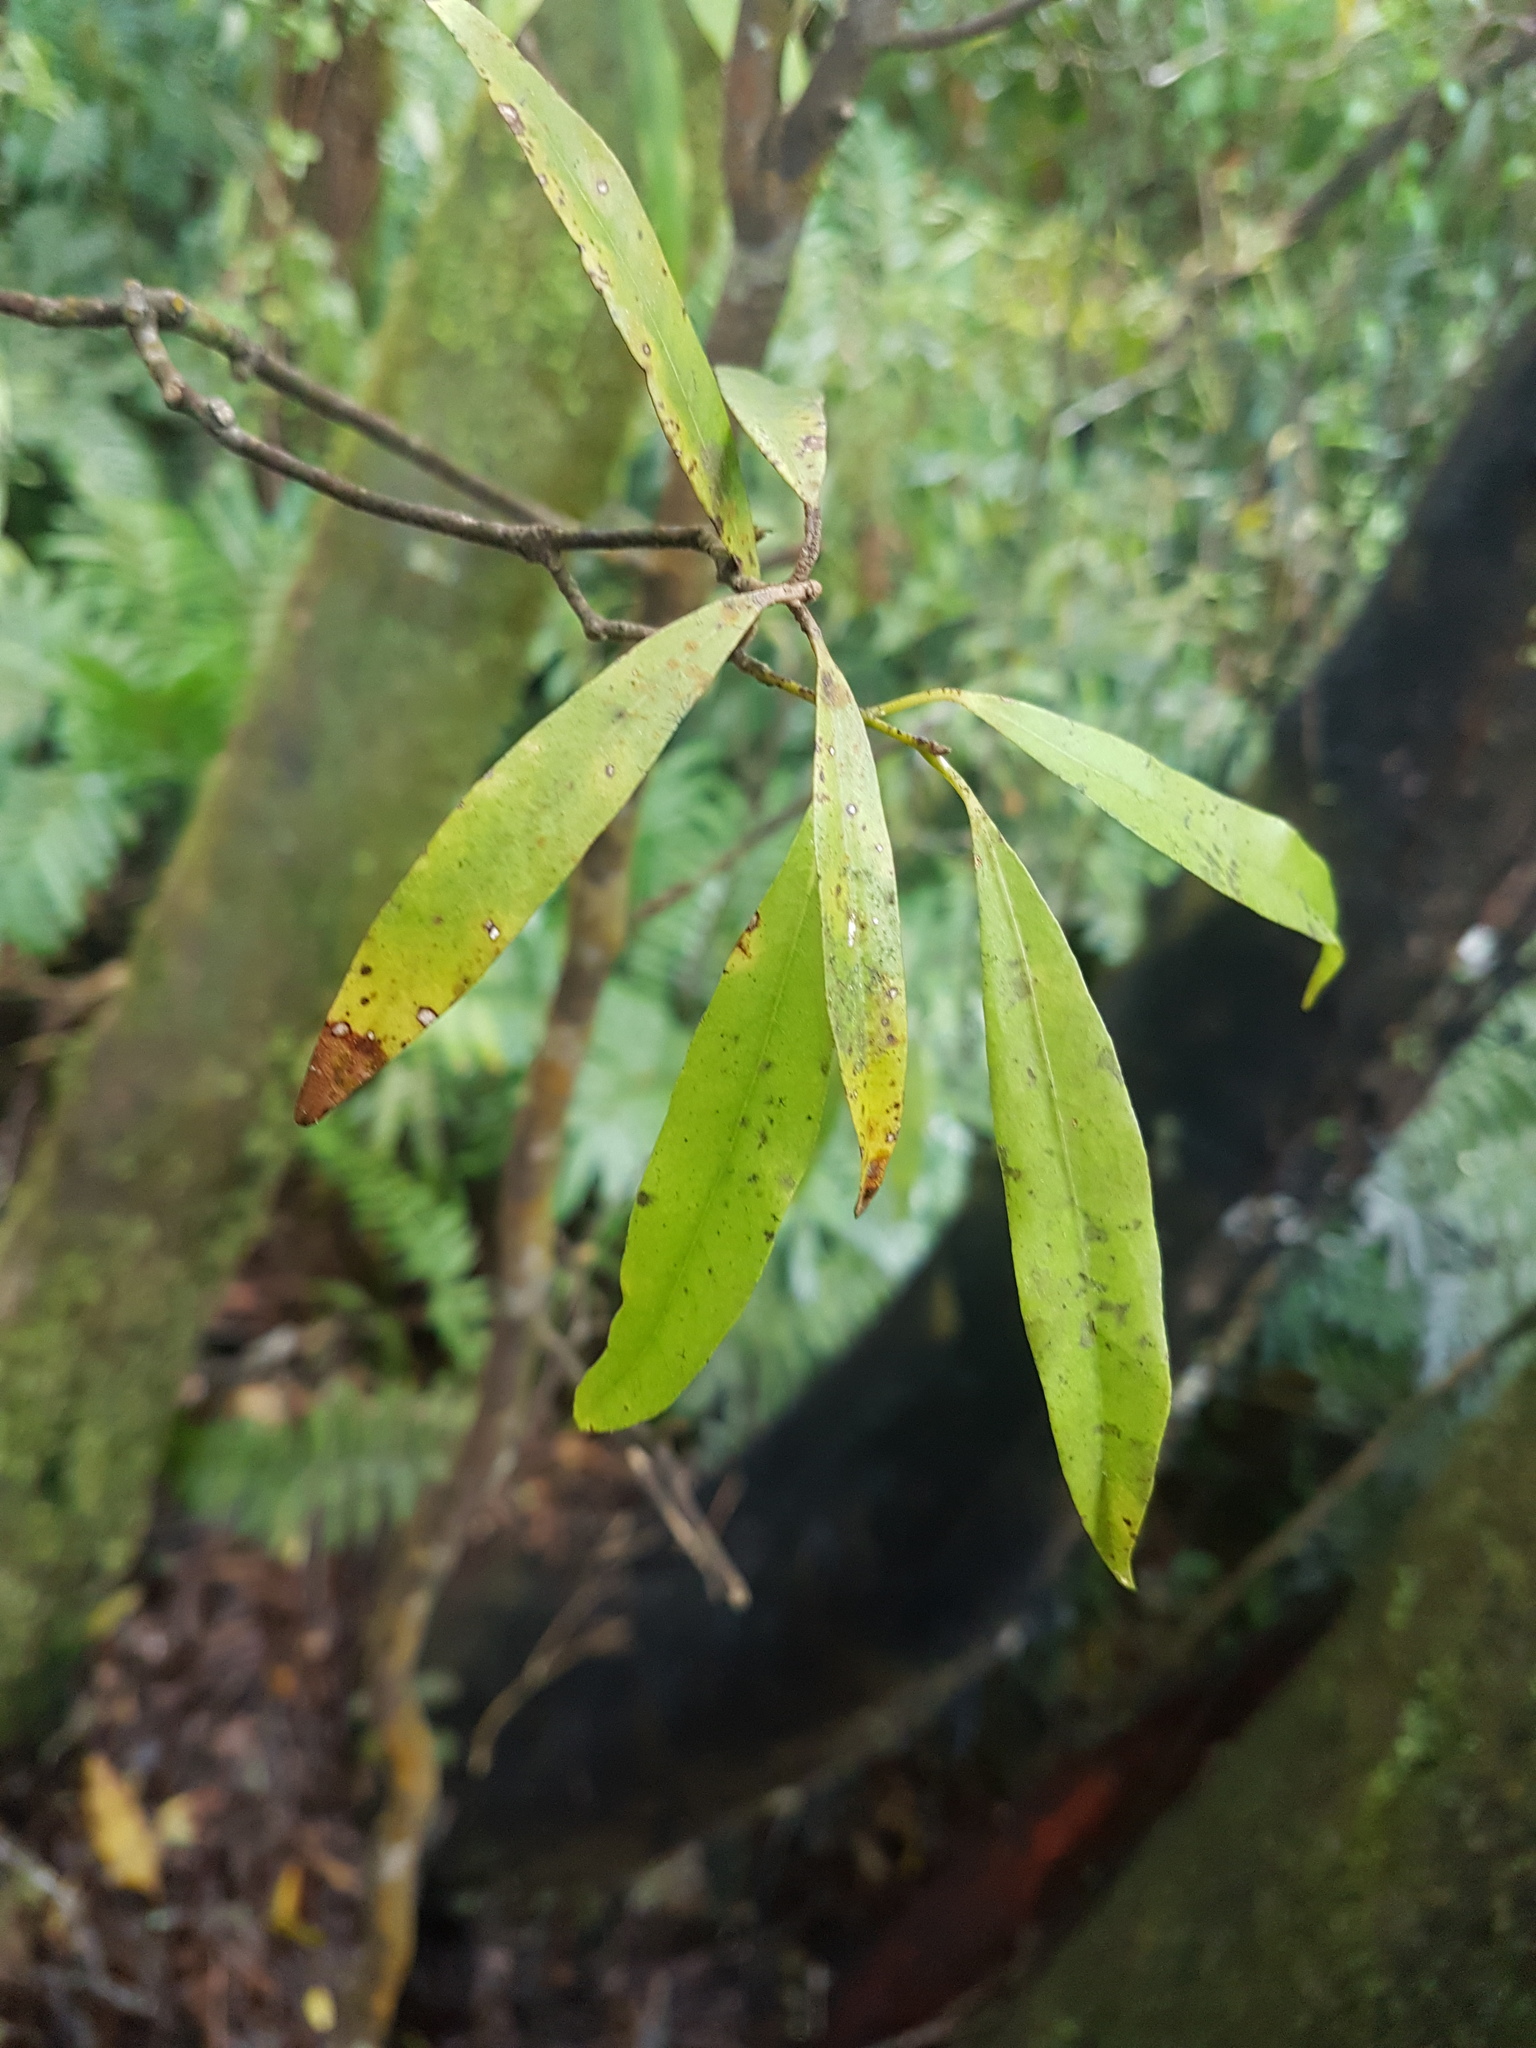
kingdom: Plantae
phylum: Tracheophyta
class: Magnoliopsida
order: Laurales
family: Lauraceae
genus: Beilschmiedia
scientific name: Beilschmiedia tawa
